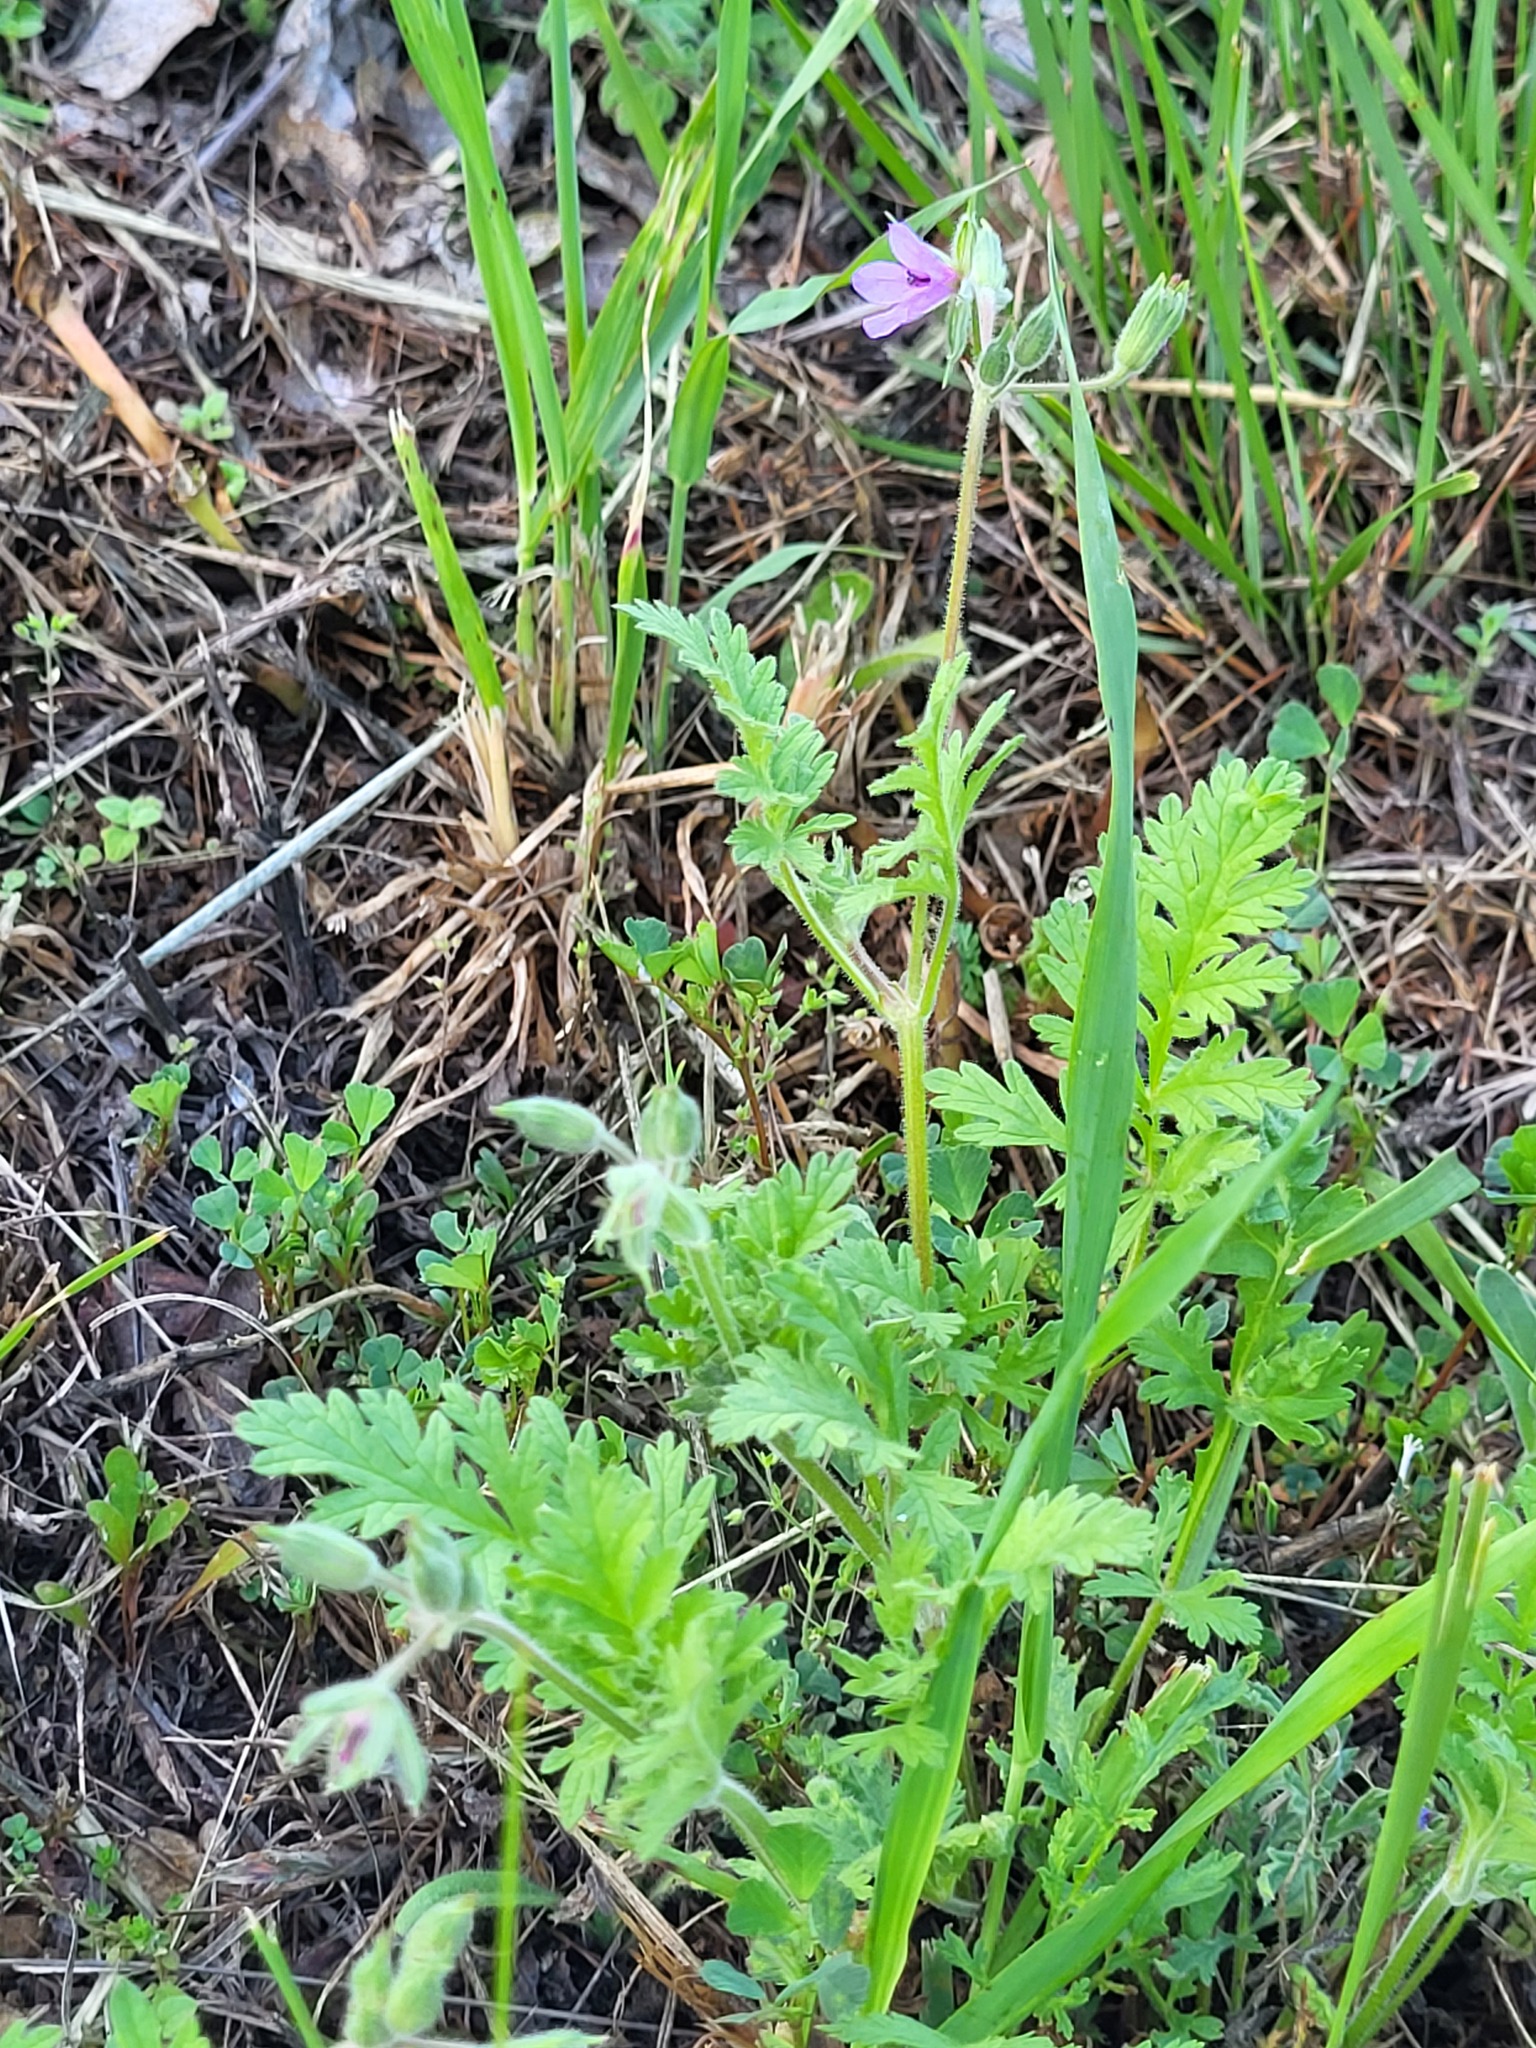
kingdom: Plantae
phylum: Tracheophyta
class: Magnoliopsida
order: Geraniales
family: Geraniaceae
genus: Erodium
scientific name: Erodium ciconium
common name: Common stork's bill
